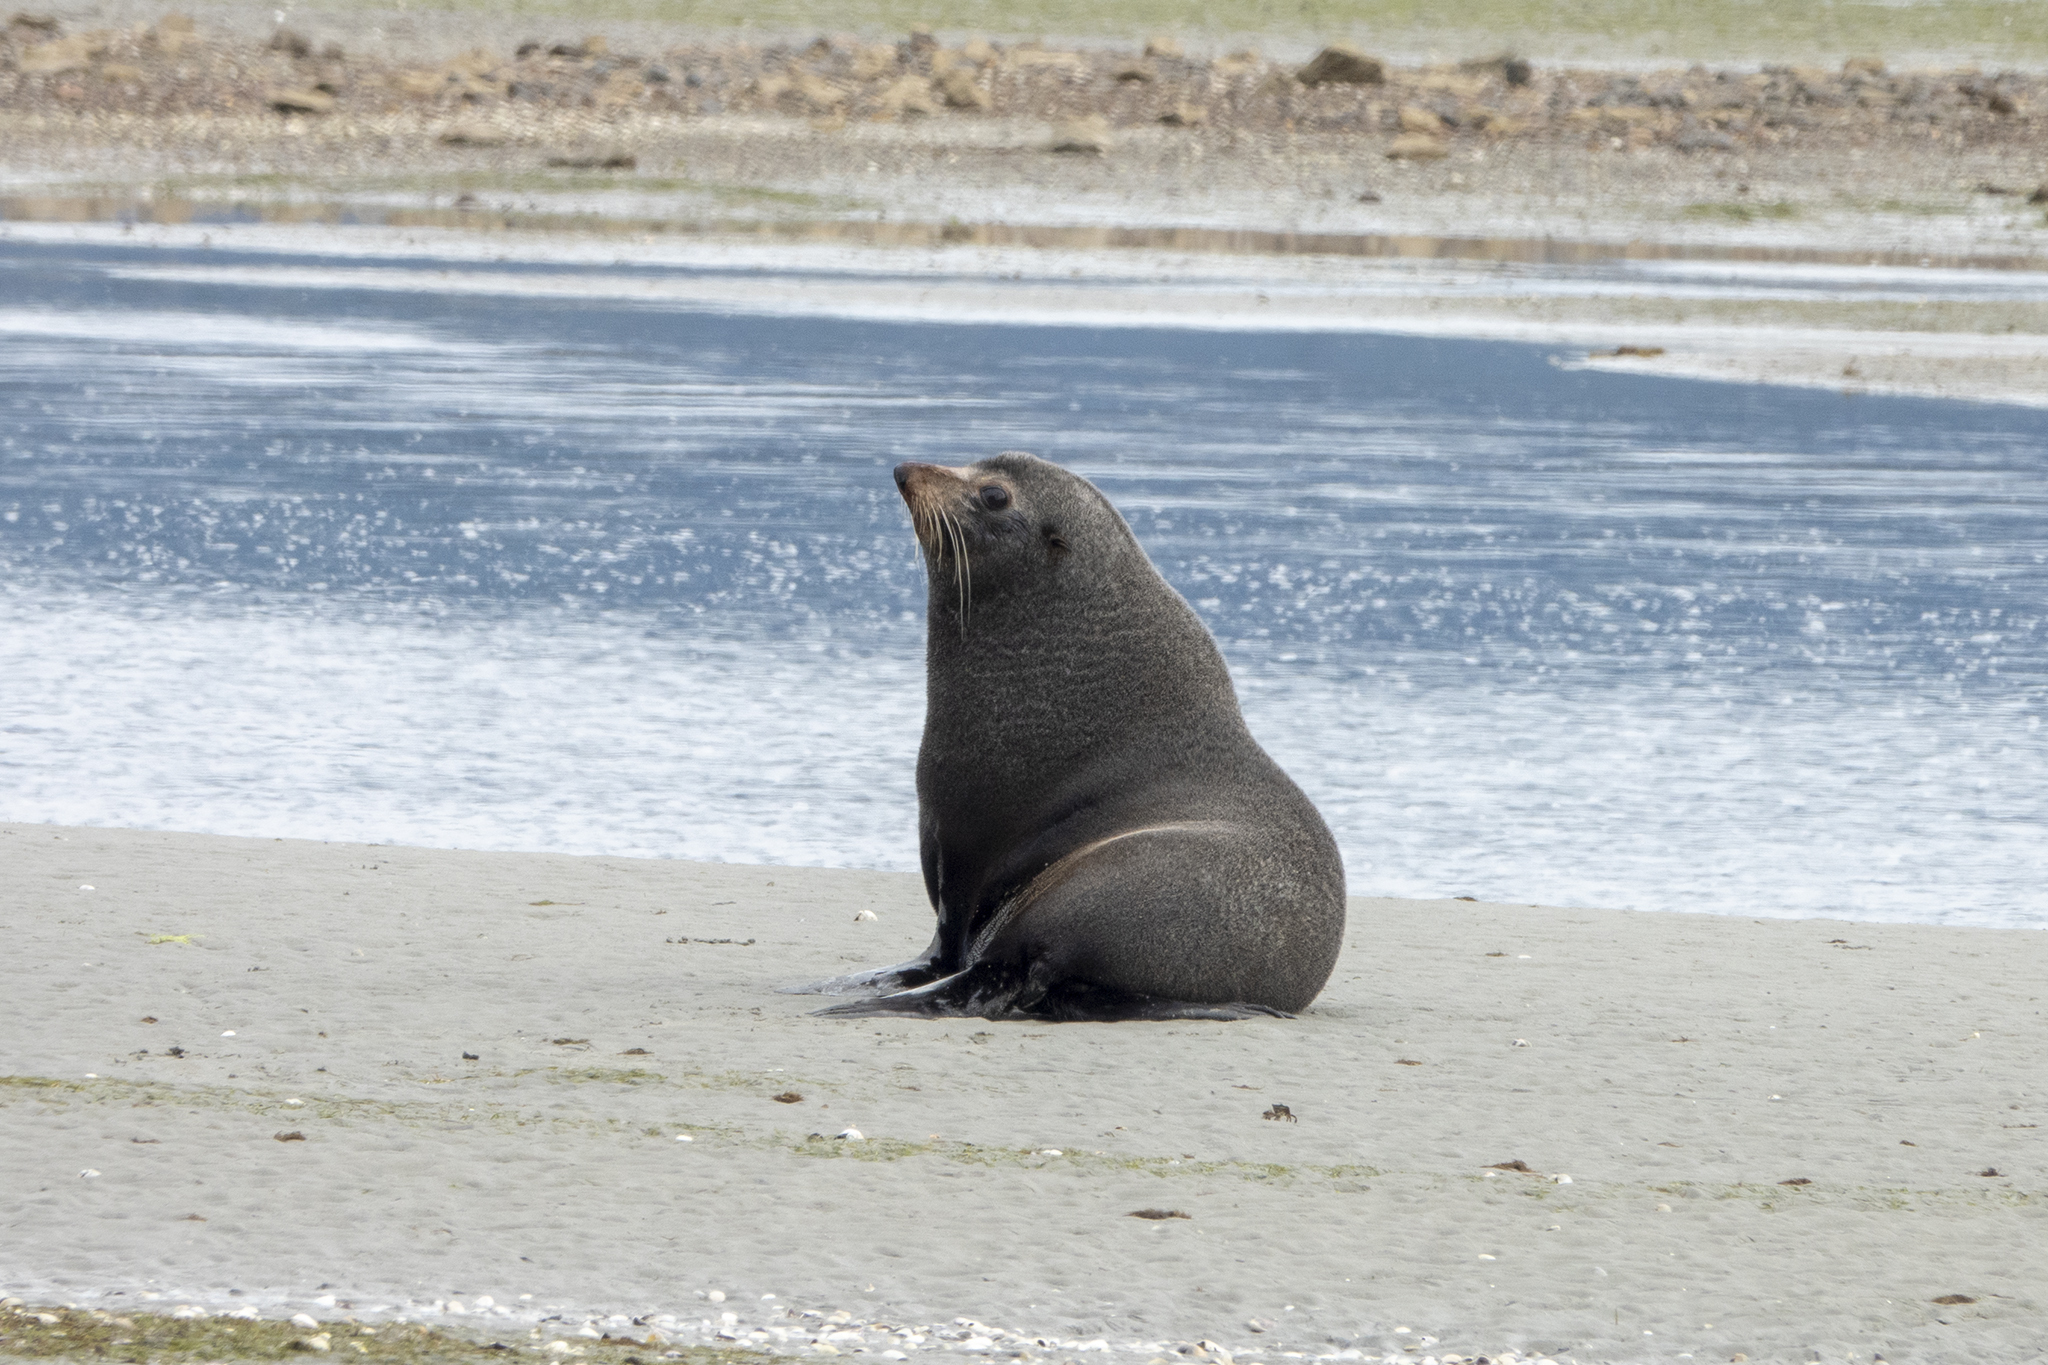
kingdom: Animalia
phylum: Chordata
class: Mammalia
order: Carnivora
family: Otariidae
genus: Arctocephalus
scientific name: Arctocephalus forsteri
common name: New zealand fur seal
